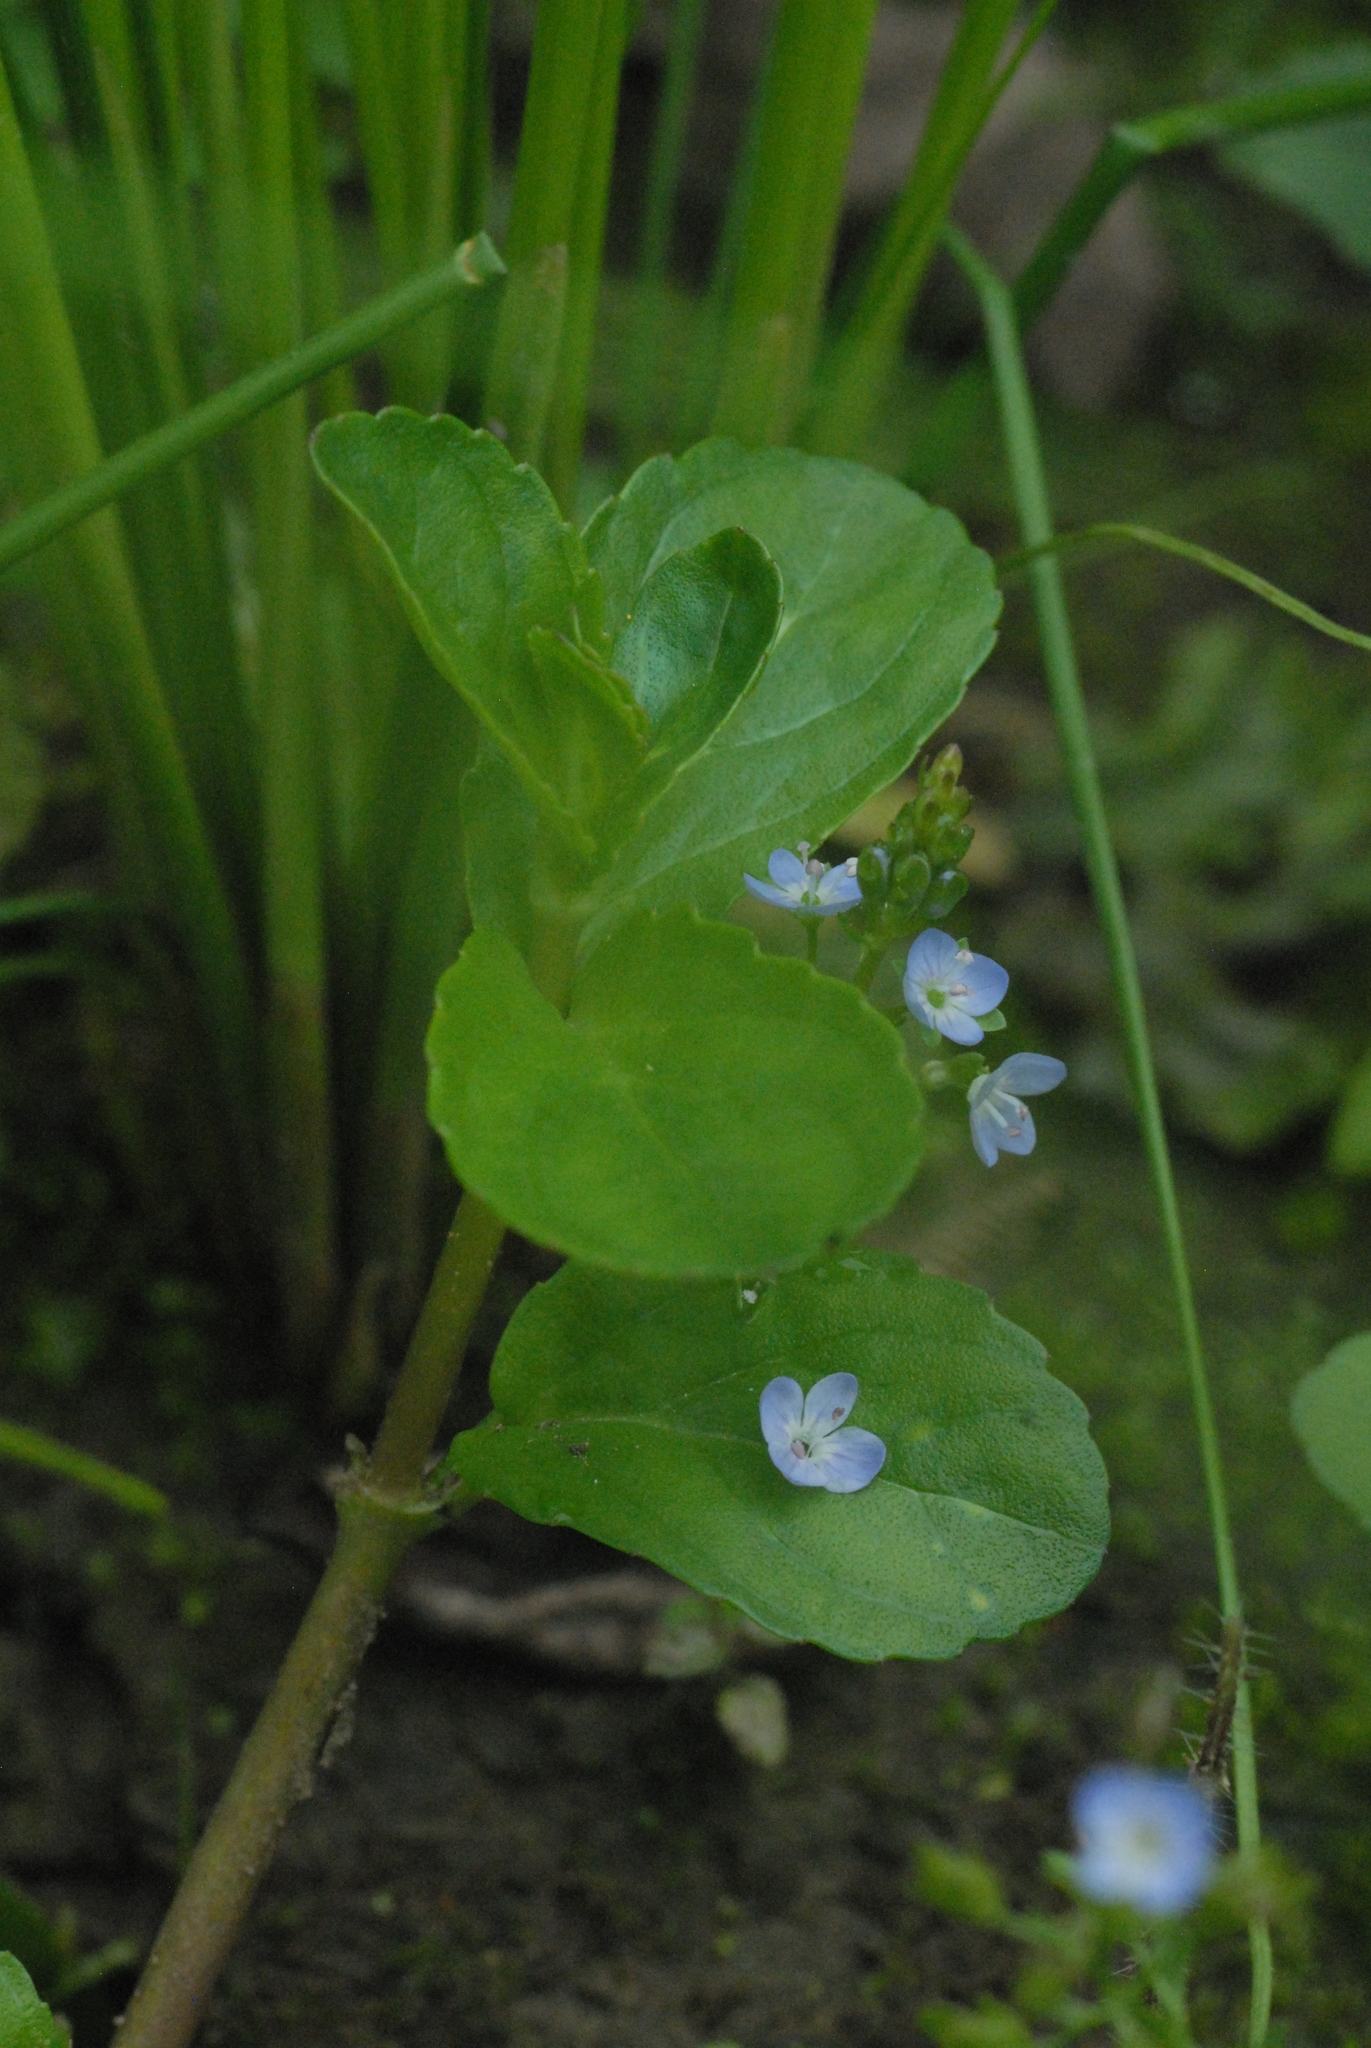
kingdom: Plantae
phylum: Tracheophyta
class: Magnoliopsida
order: Lamiales
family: Plantaginaceae
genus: Veronica
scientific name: Veronica beccabunga
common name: Brooklime
